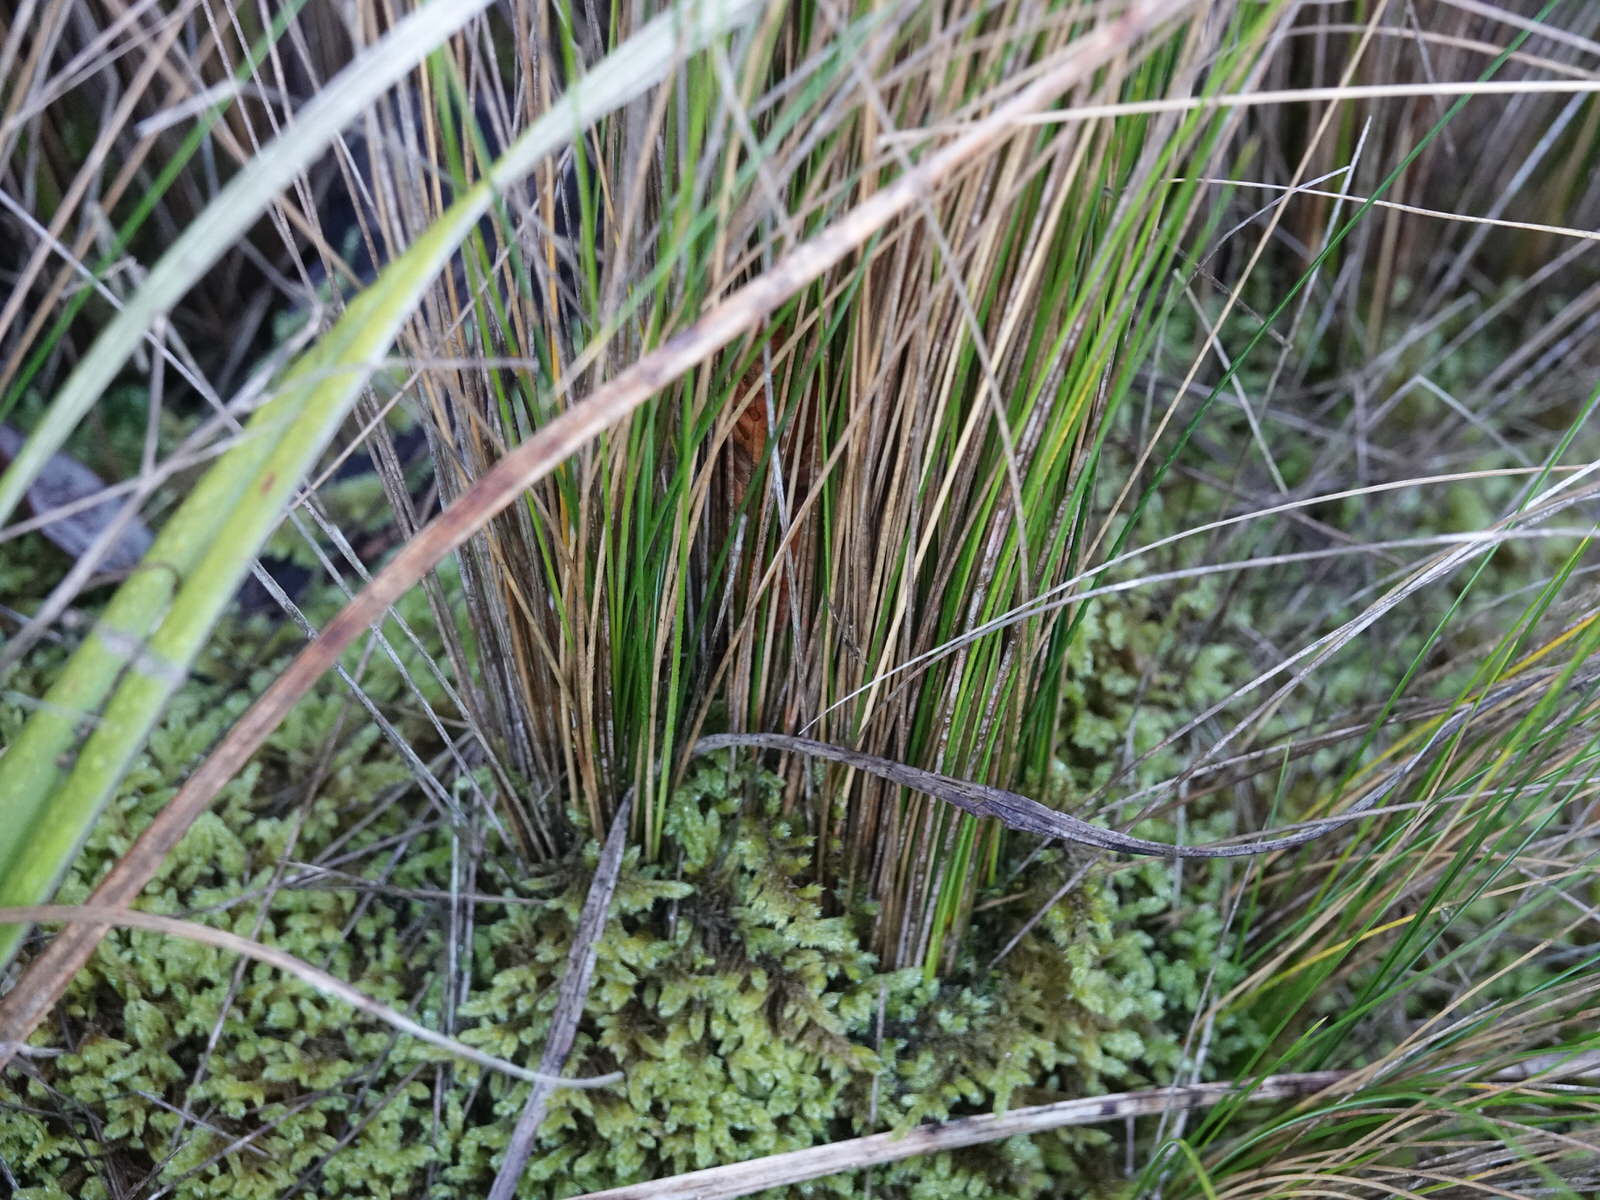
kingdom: Plantae
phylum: Tracheophyta
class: Liliopsida
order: Poales
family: Poaceae
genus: Austrostipa
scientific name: Austrostipa stipoides
